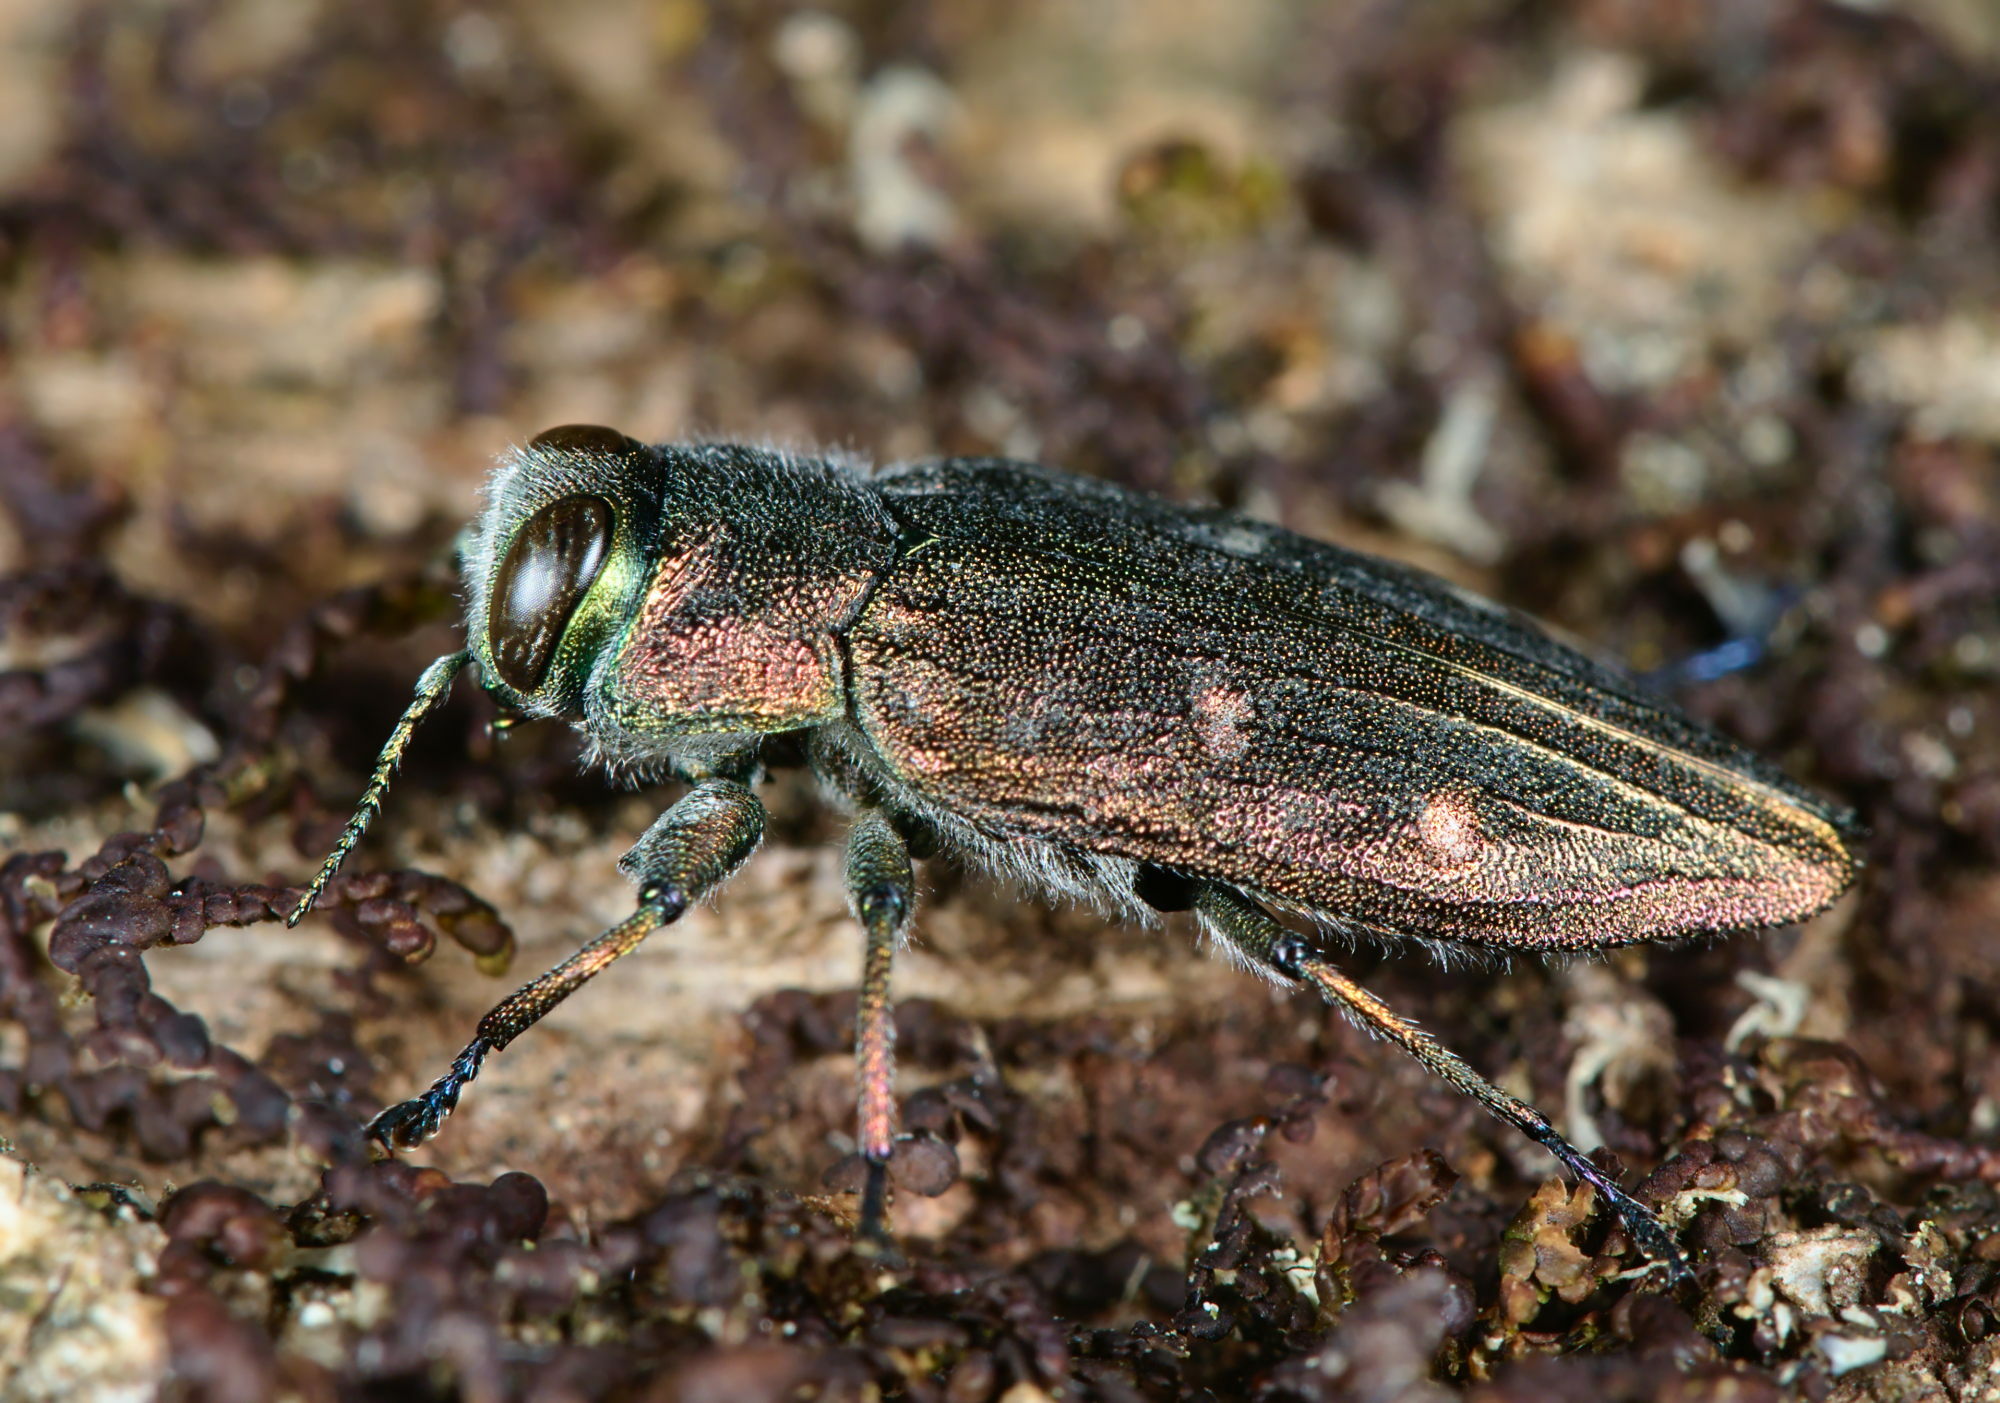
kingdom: Animalia
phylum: Arthropoda
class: Insecta
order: Coleoptera
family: Buprestidae
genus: Chrysobothris
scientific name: Chrysobothris affinis
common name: Beetle
